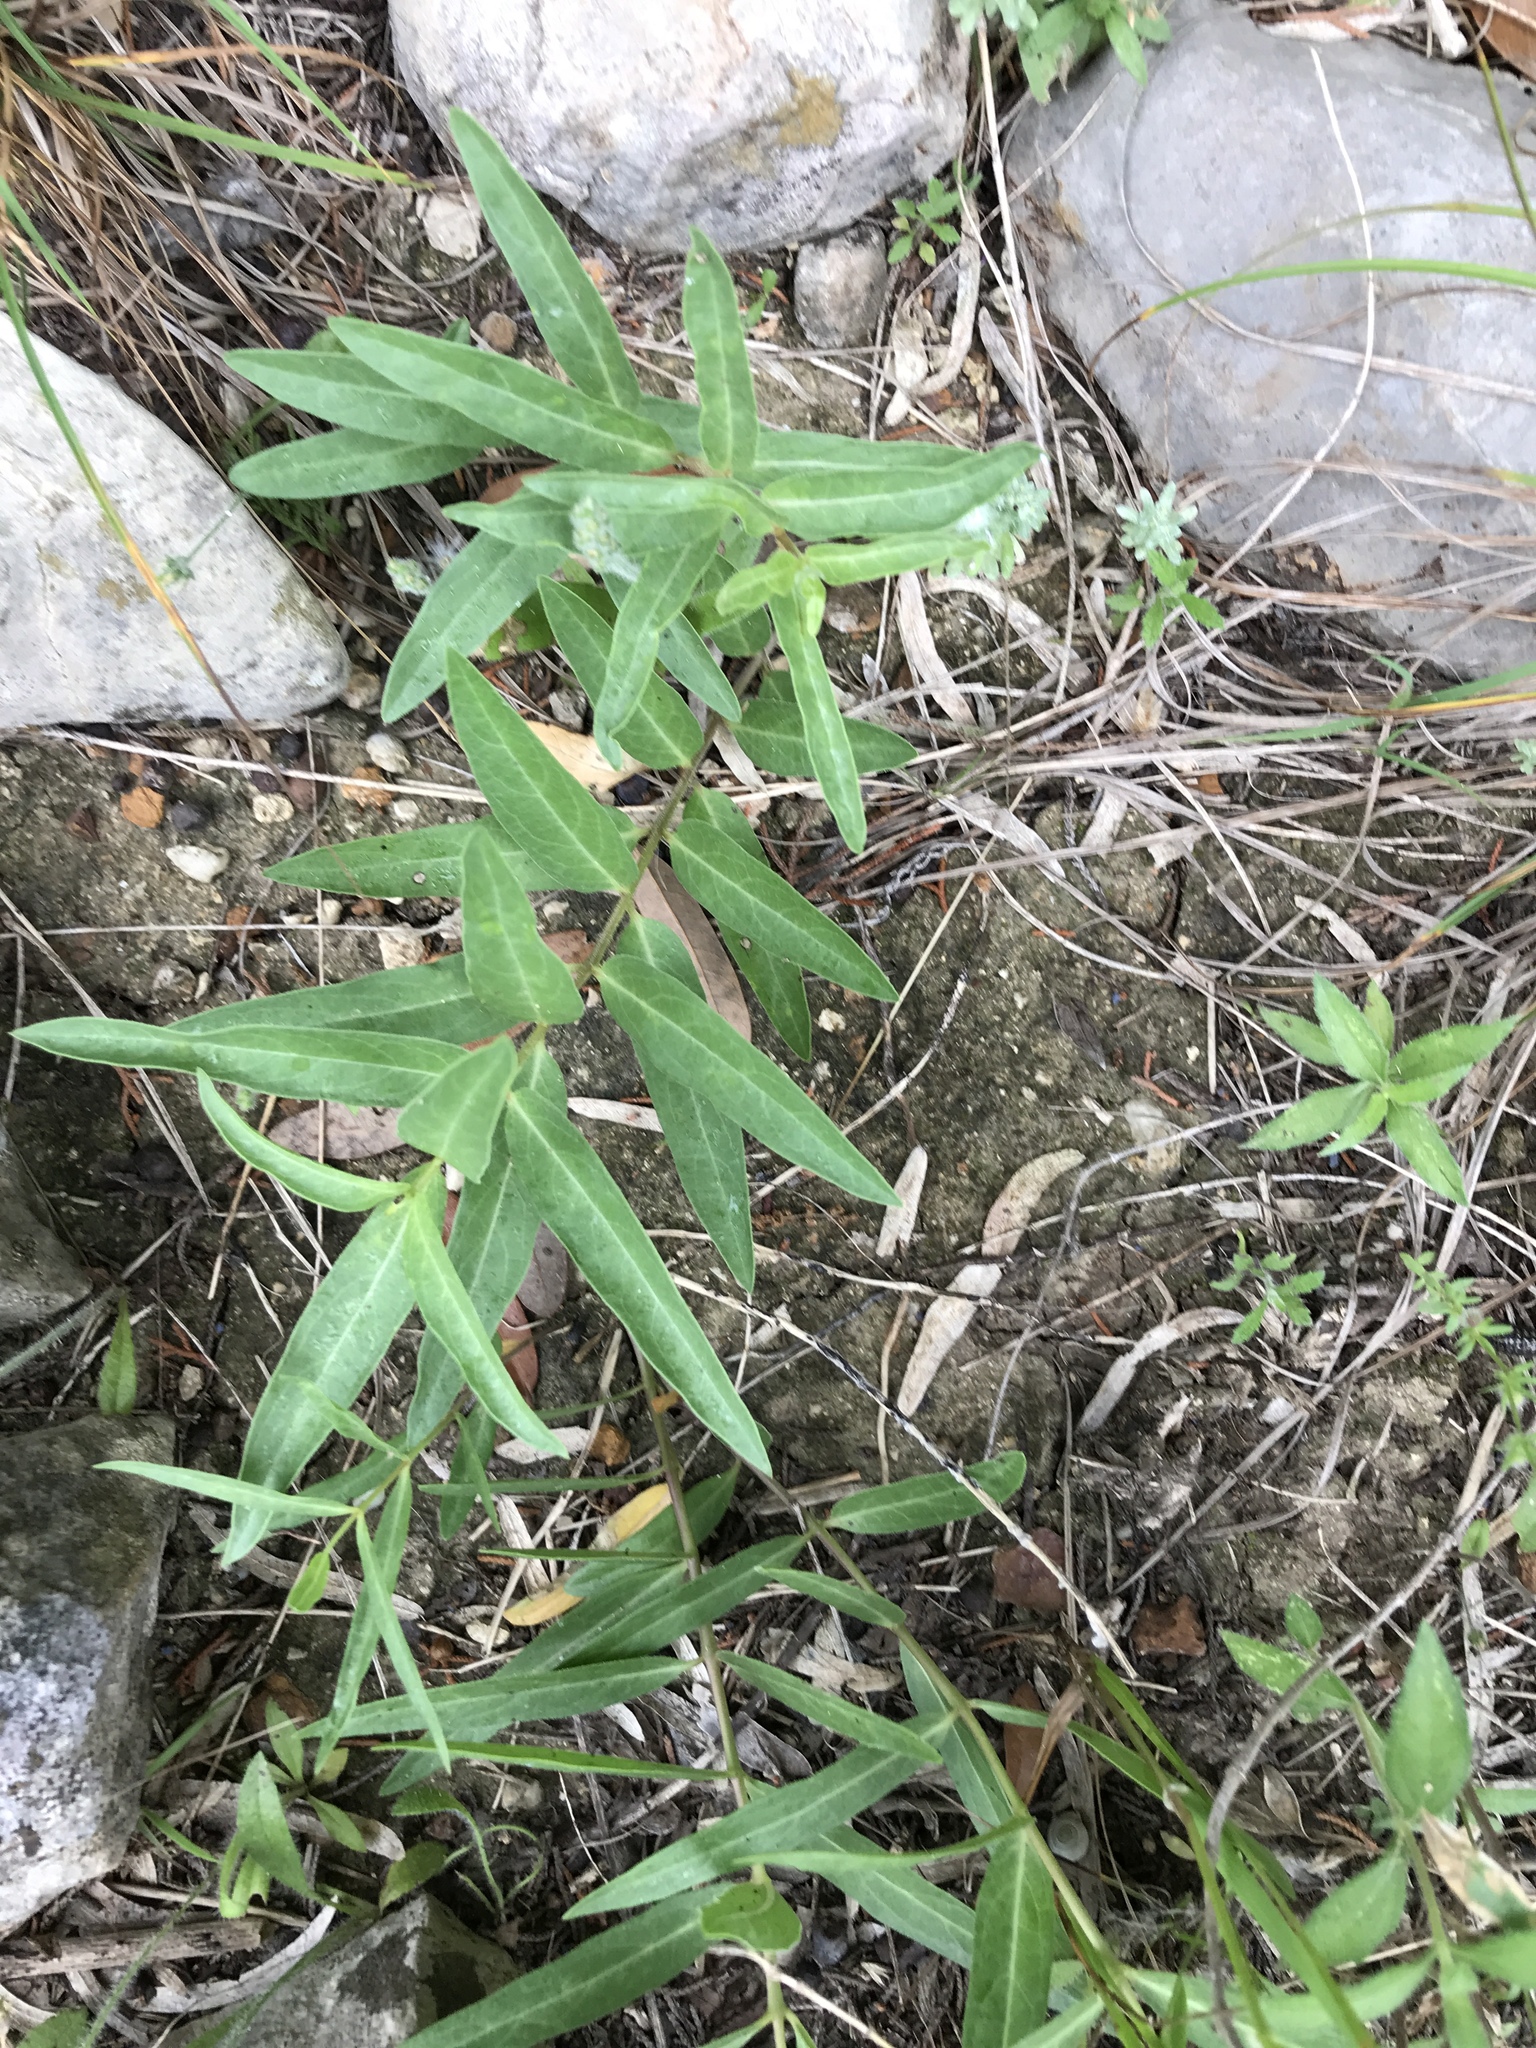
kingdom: Plantae
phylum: Tracheophyta
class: Magnoliopsida
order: Gentianales
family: Apocynaceae
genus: Asclepias
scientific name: Asclepias asperula
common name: Antelope horns
